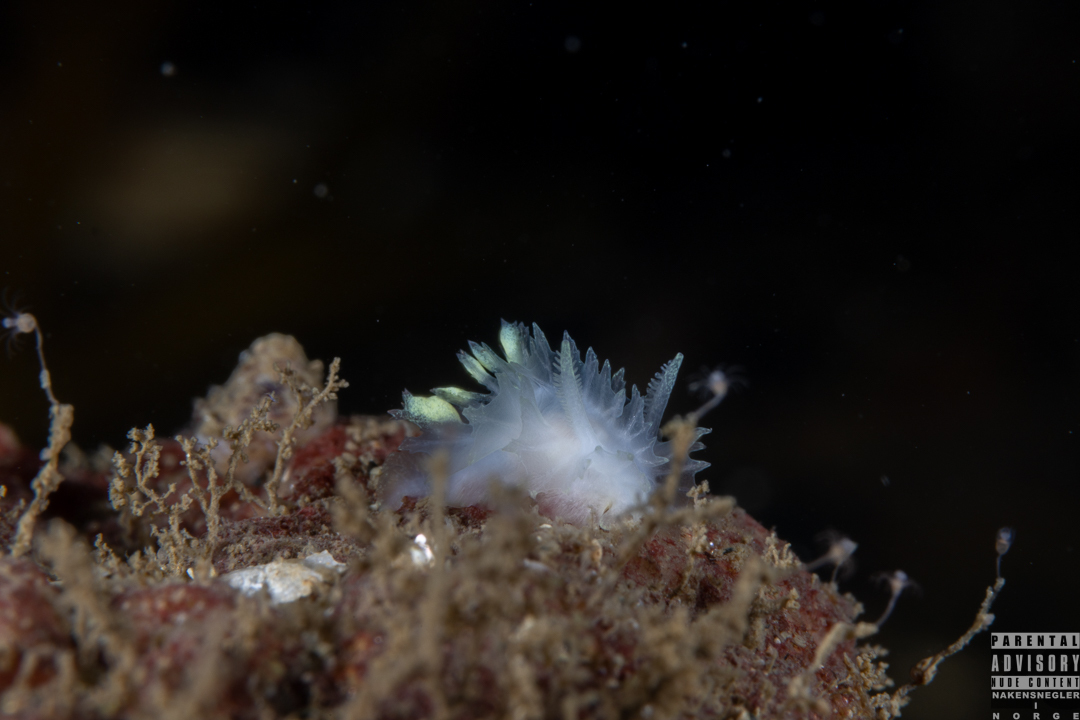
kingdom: Animalia
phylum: Mollusca
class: Gastropoda
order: Nudibranchia
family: Goniodorididae
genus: Lophodoris
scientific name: Lophodoris danielsseni
